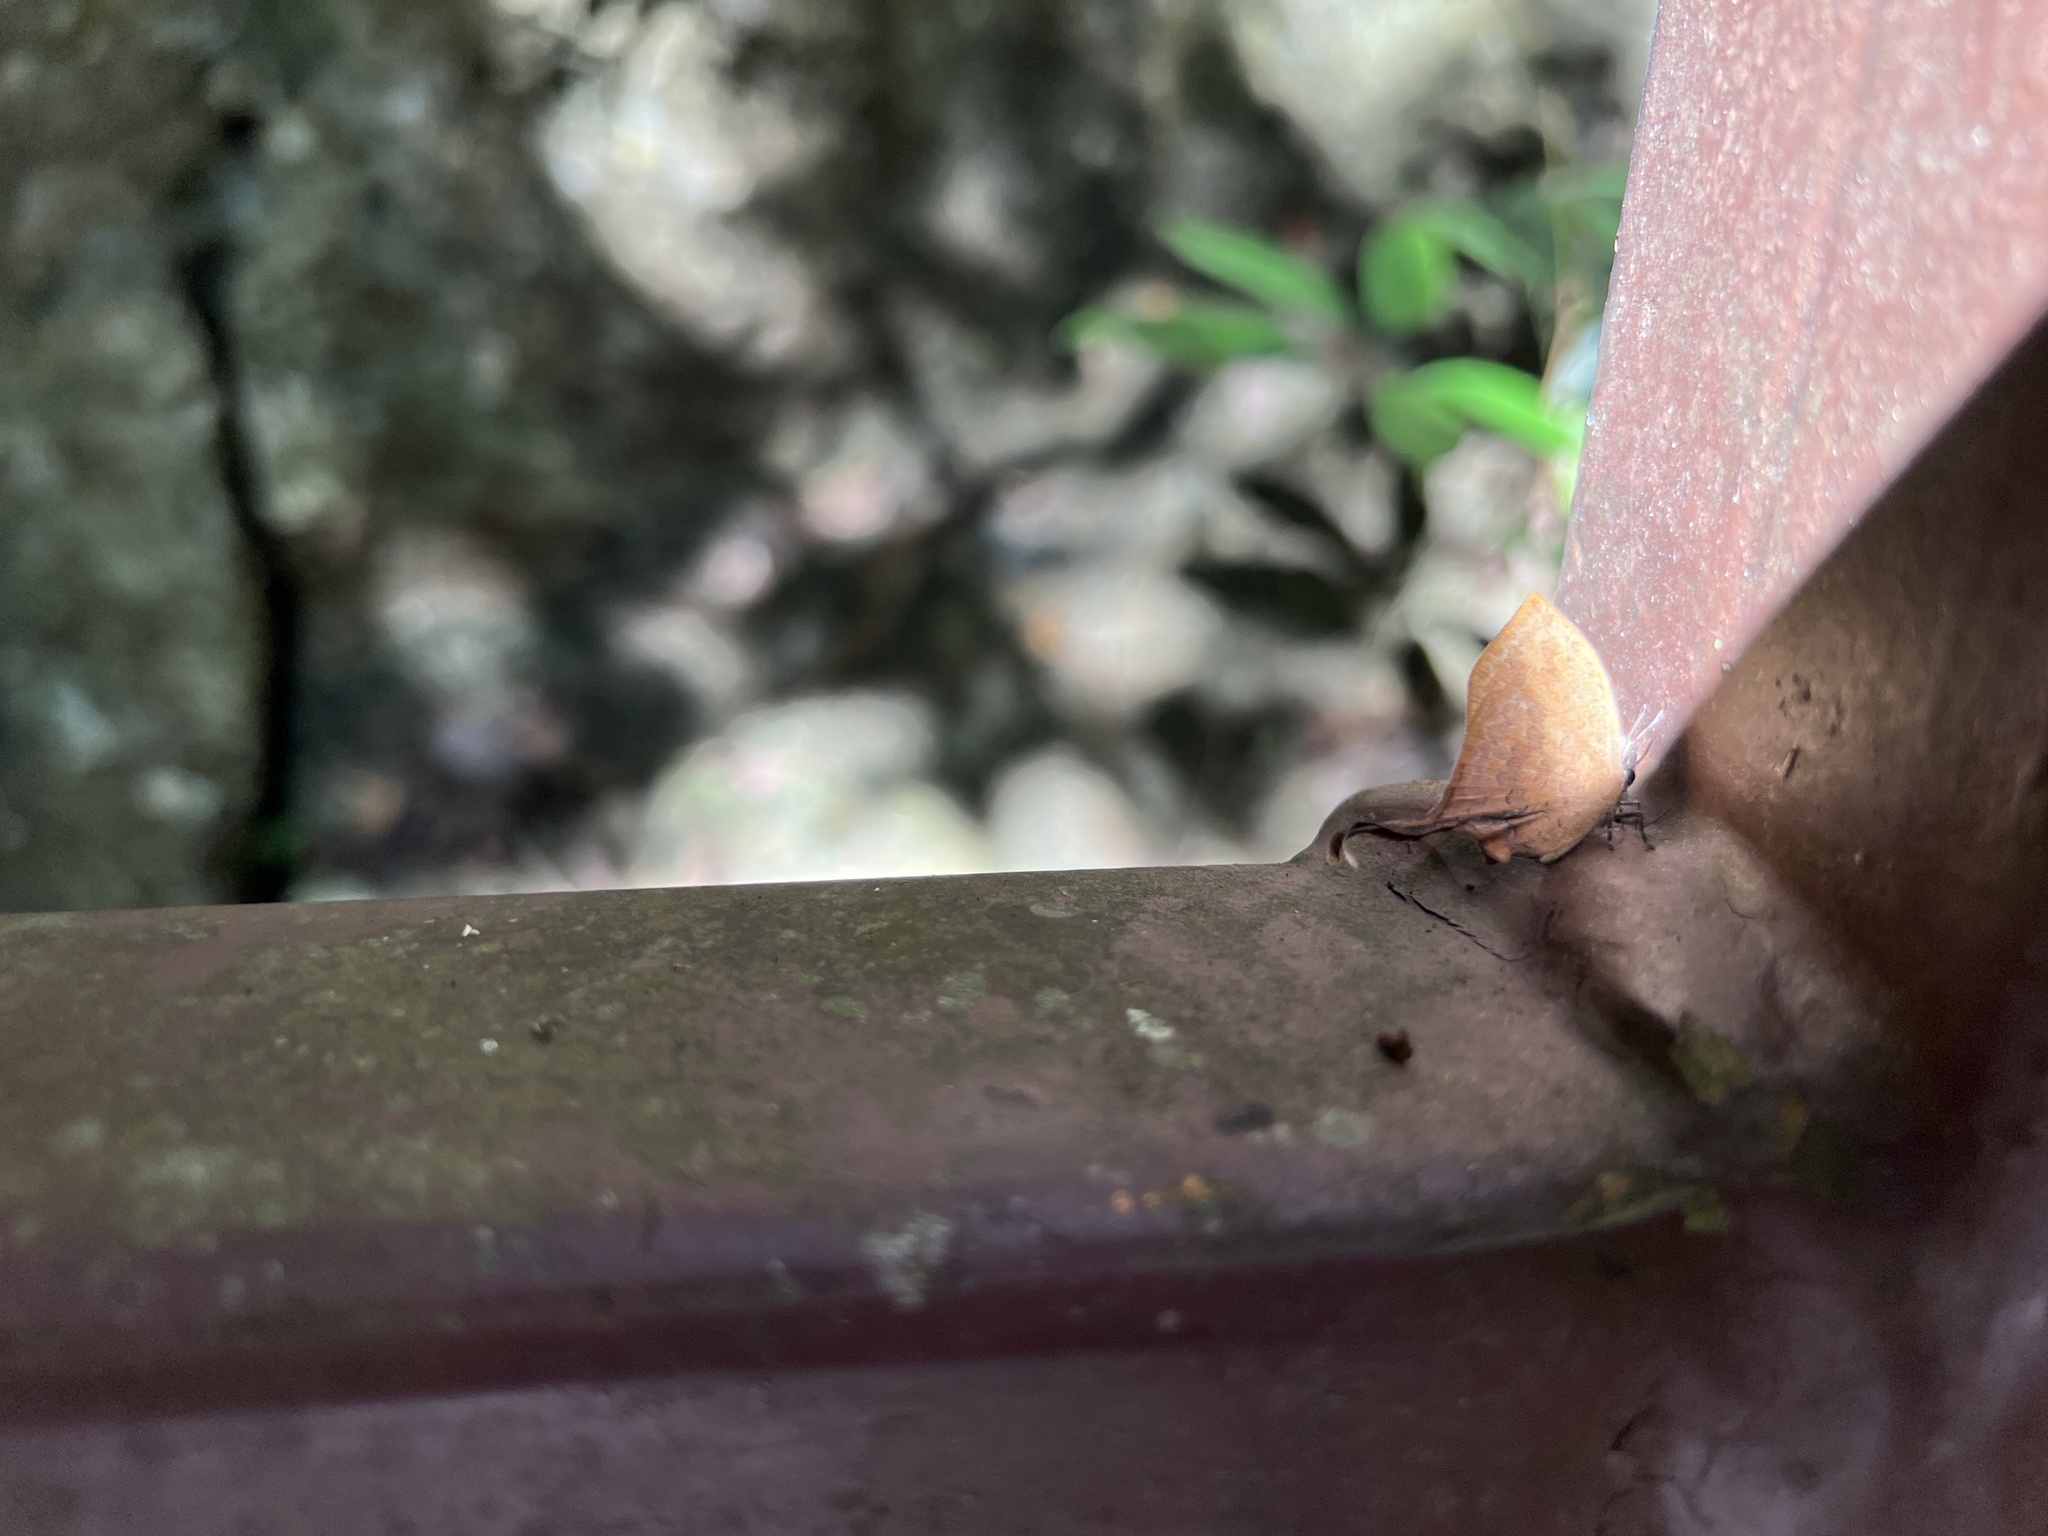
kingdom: Animalia
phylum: Arthropoda
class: Insecta
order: Lepidoptera
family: Lycaenidae
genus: Yasoda
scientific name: Yasoda tripunctata
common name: Branded yamfly
